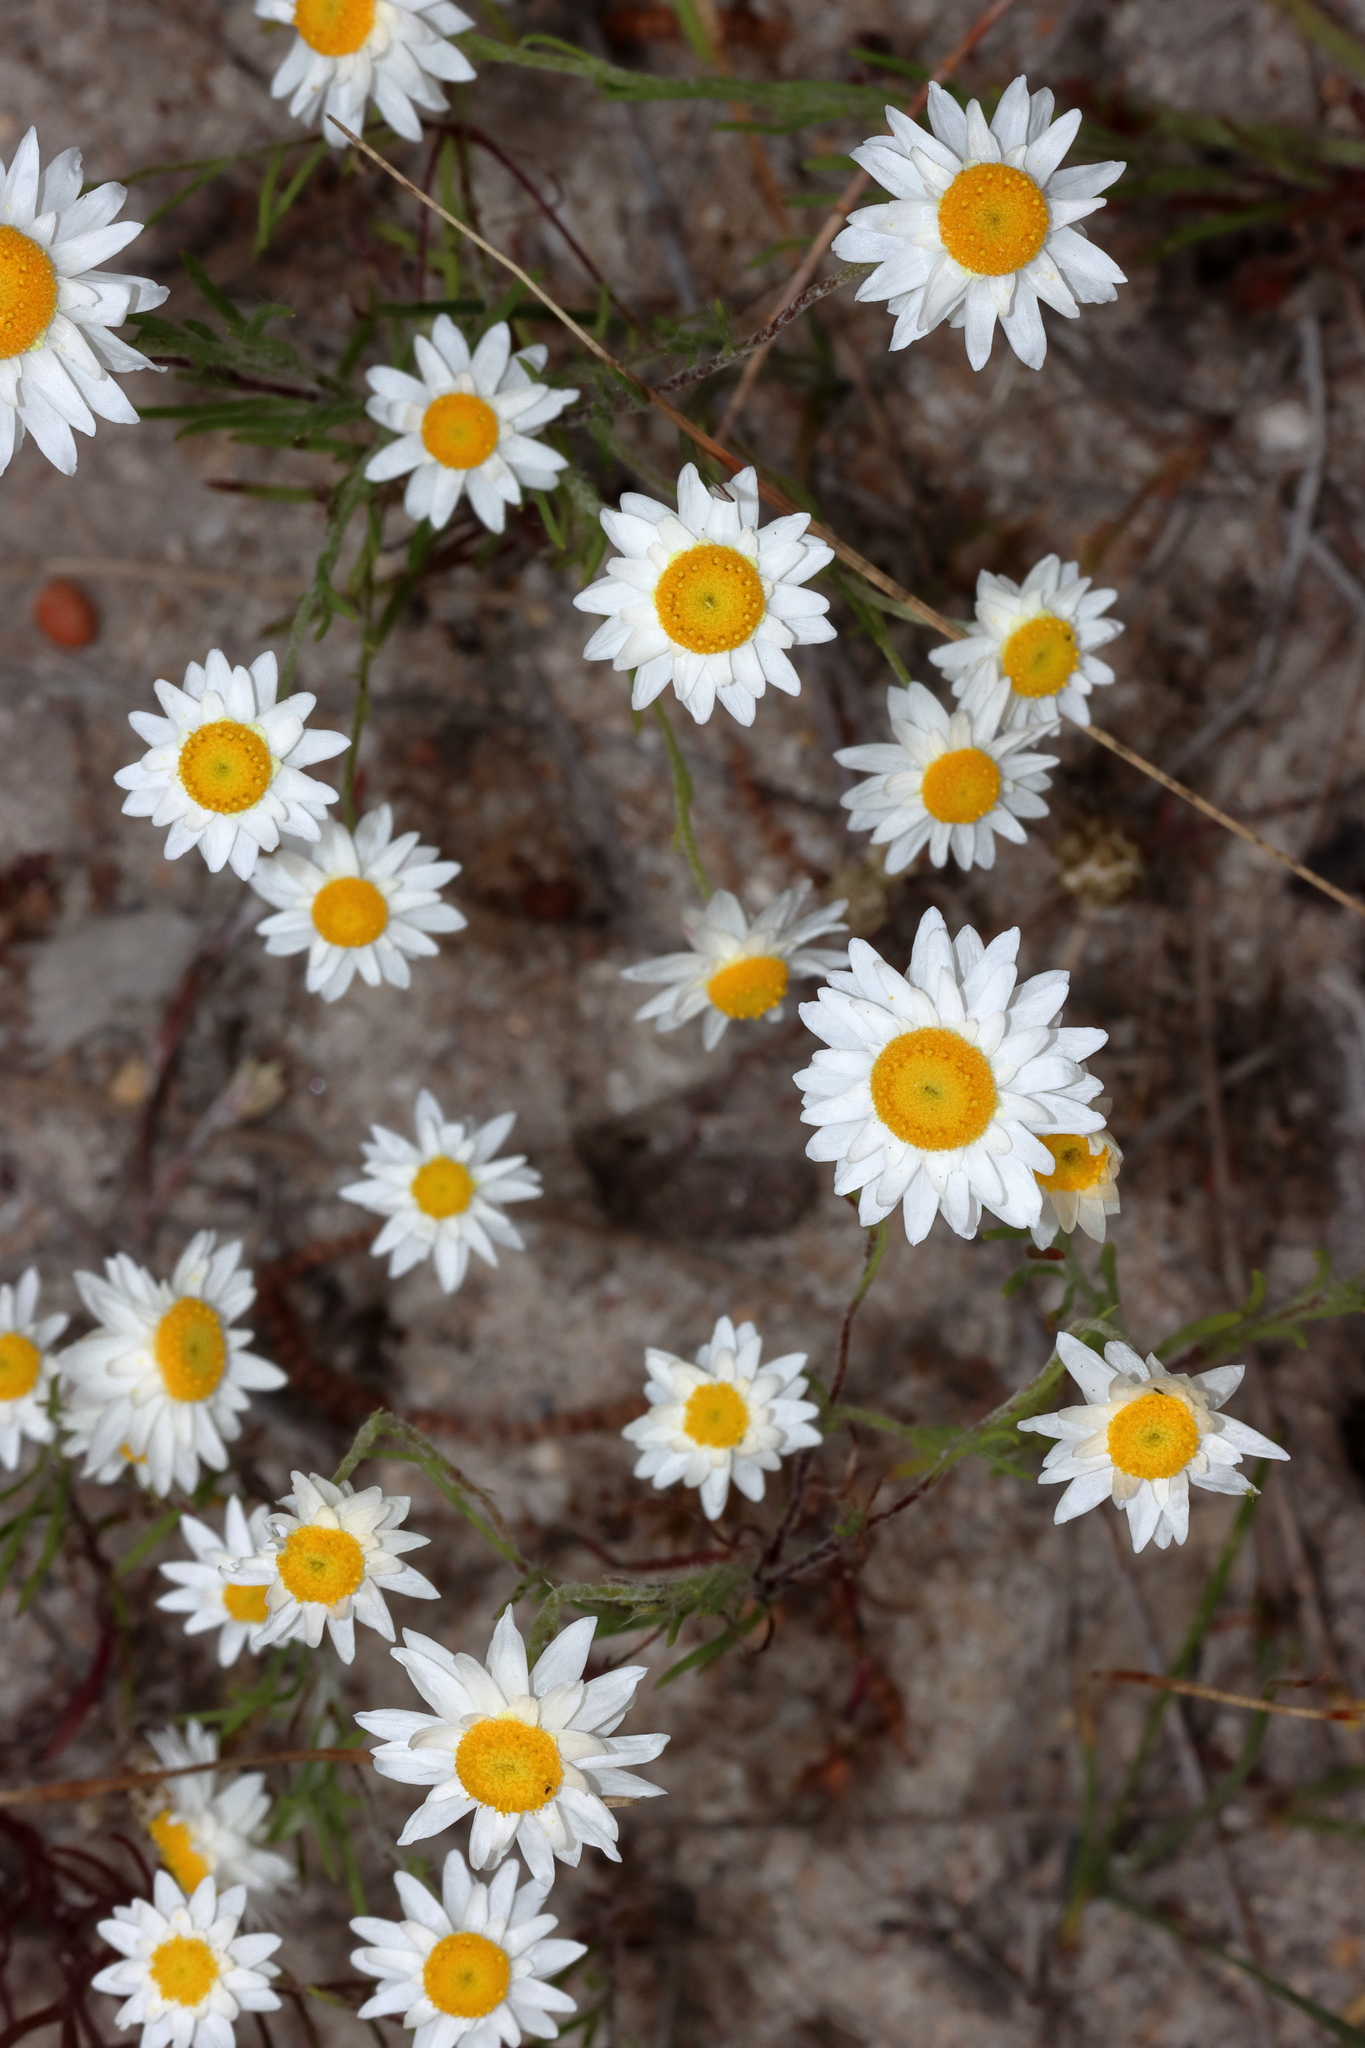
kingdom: Plantae
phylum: Tracheophyta
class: Magnoliopsida
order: Asterales
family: Asteraceae
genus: Hyalosperma
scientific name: Hyalosperma cotula
